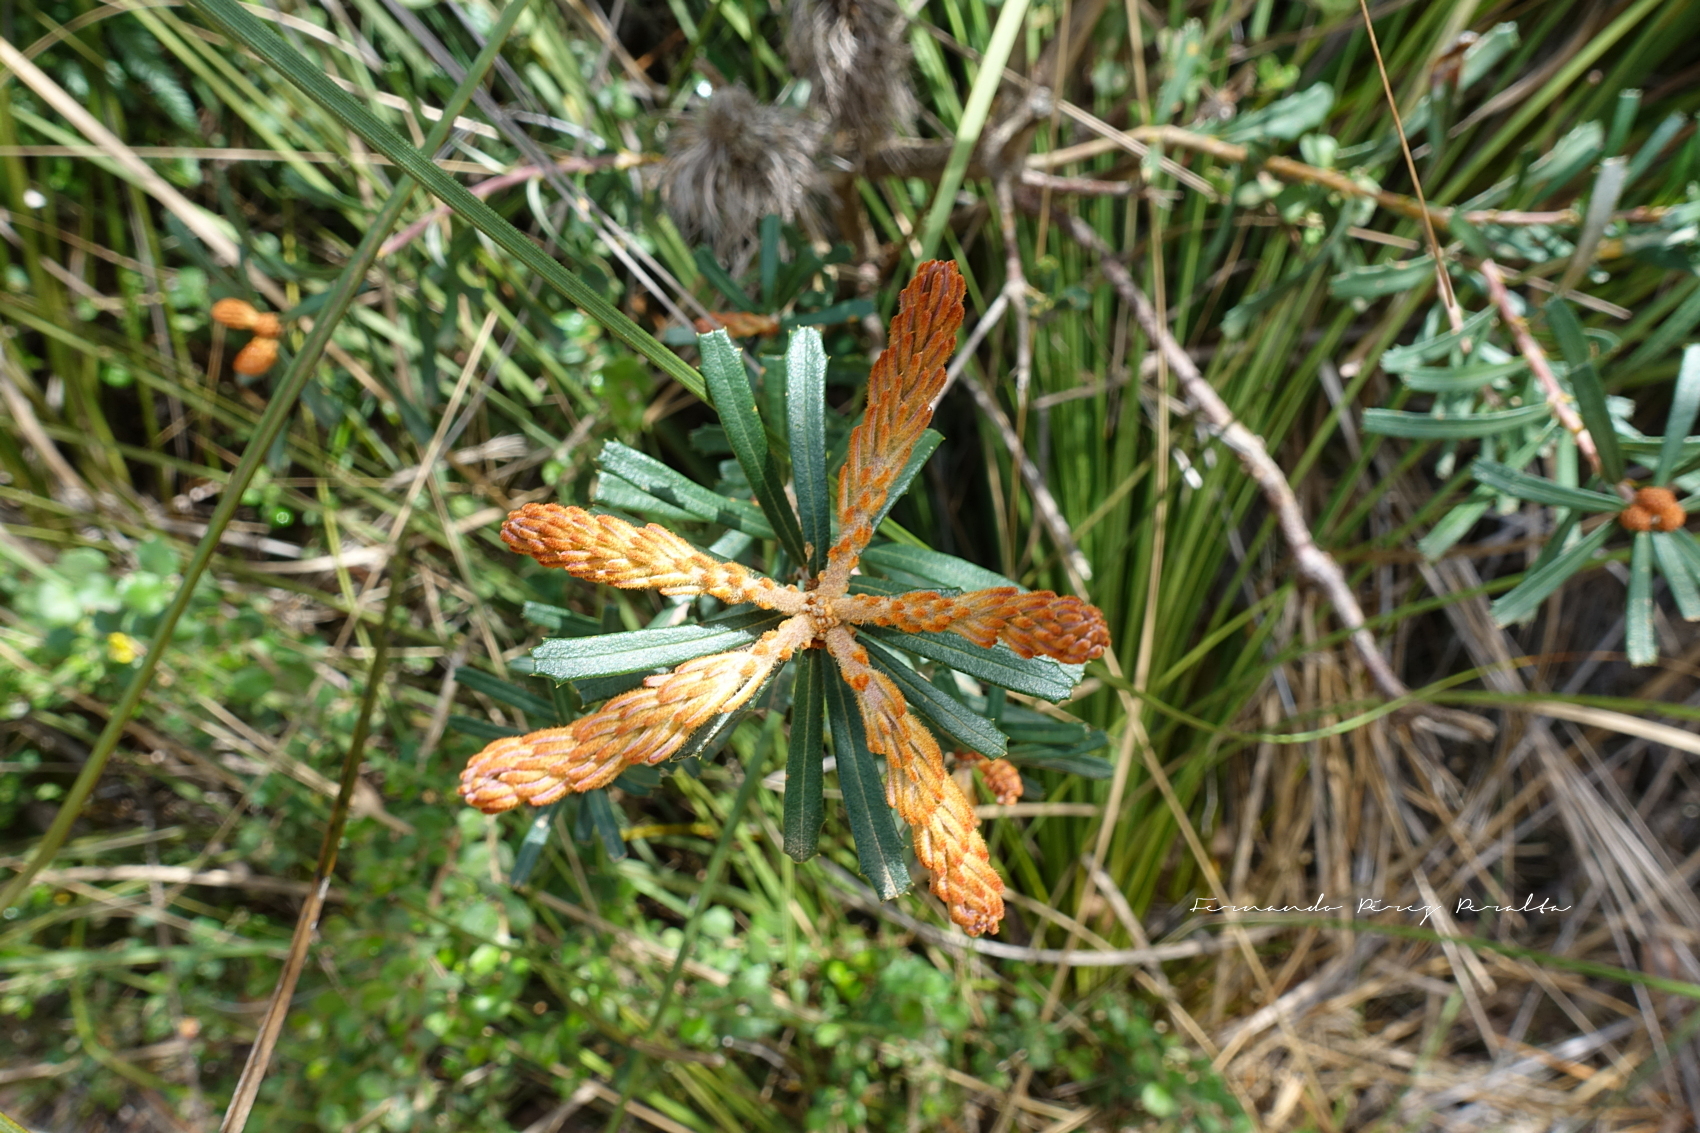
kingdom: Plantae
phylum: Tracheophyta
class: Magnoliopsida
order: Proteales
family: Proteaceae
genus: Banksia
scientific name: Banksia marginata
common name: Silver banksia
